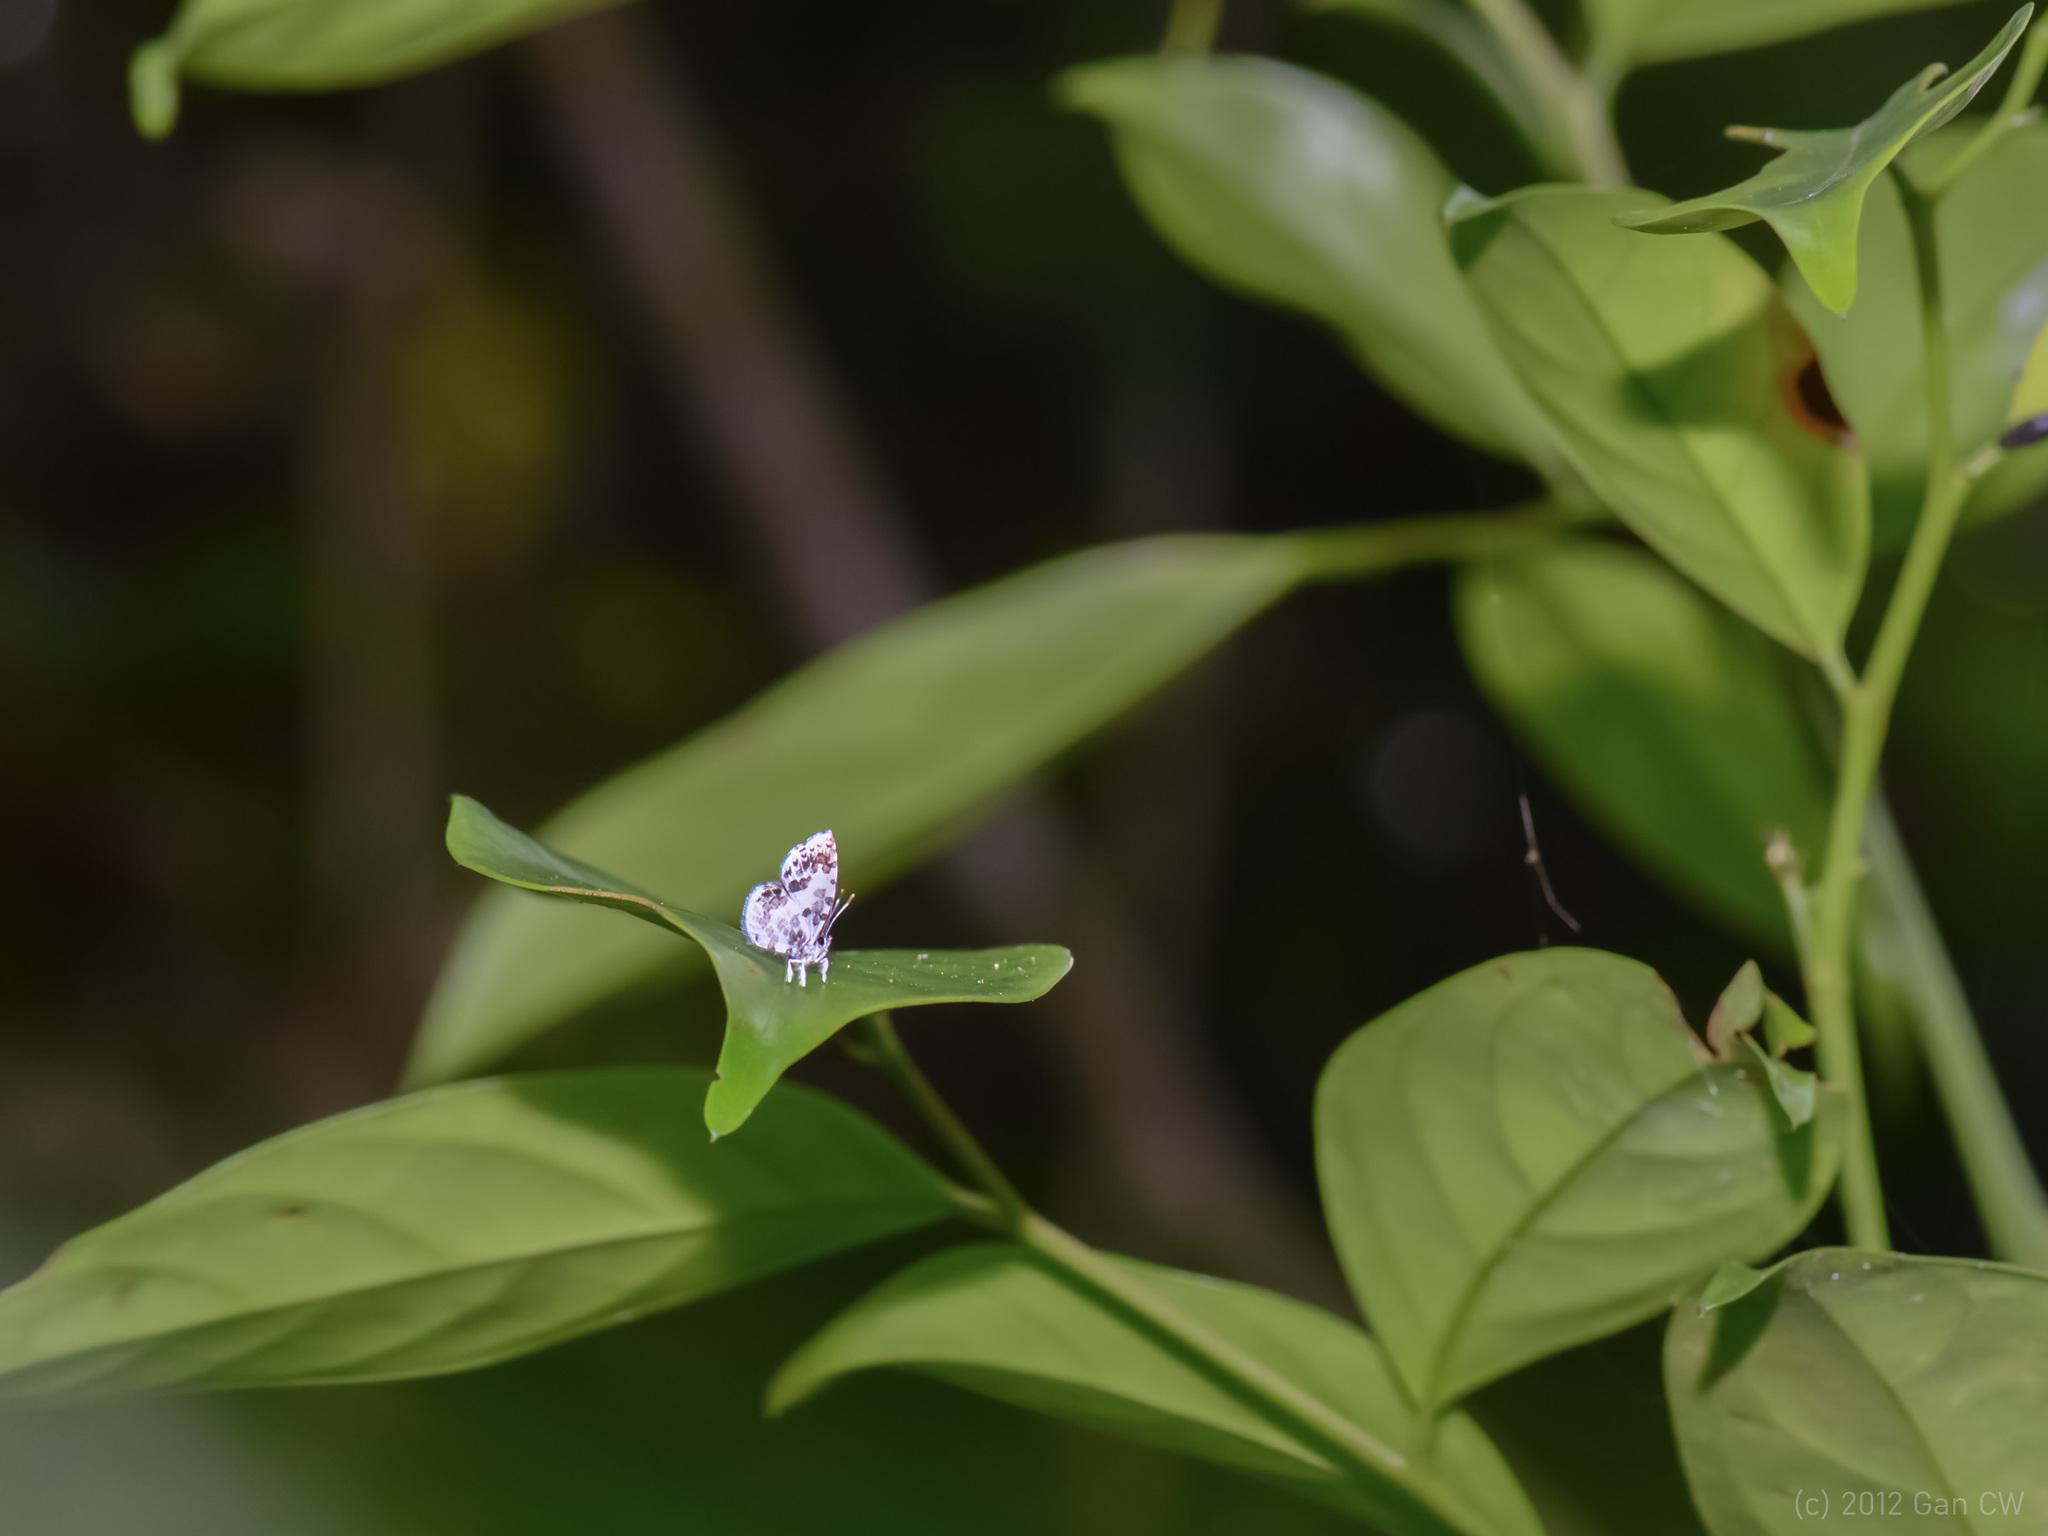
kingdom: Animalia
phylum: Arthropoda
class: Insecta
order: Lepidoptera
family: Lycaenidae
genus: Taraka
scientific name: Taraka mahanetra
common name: Lesser pierrot
